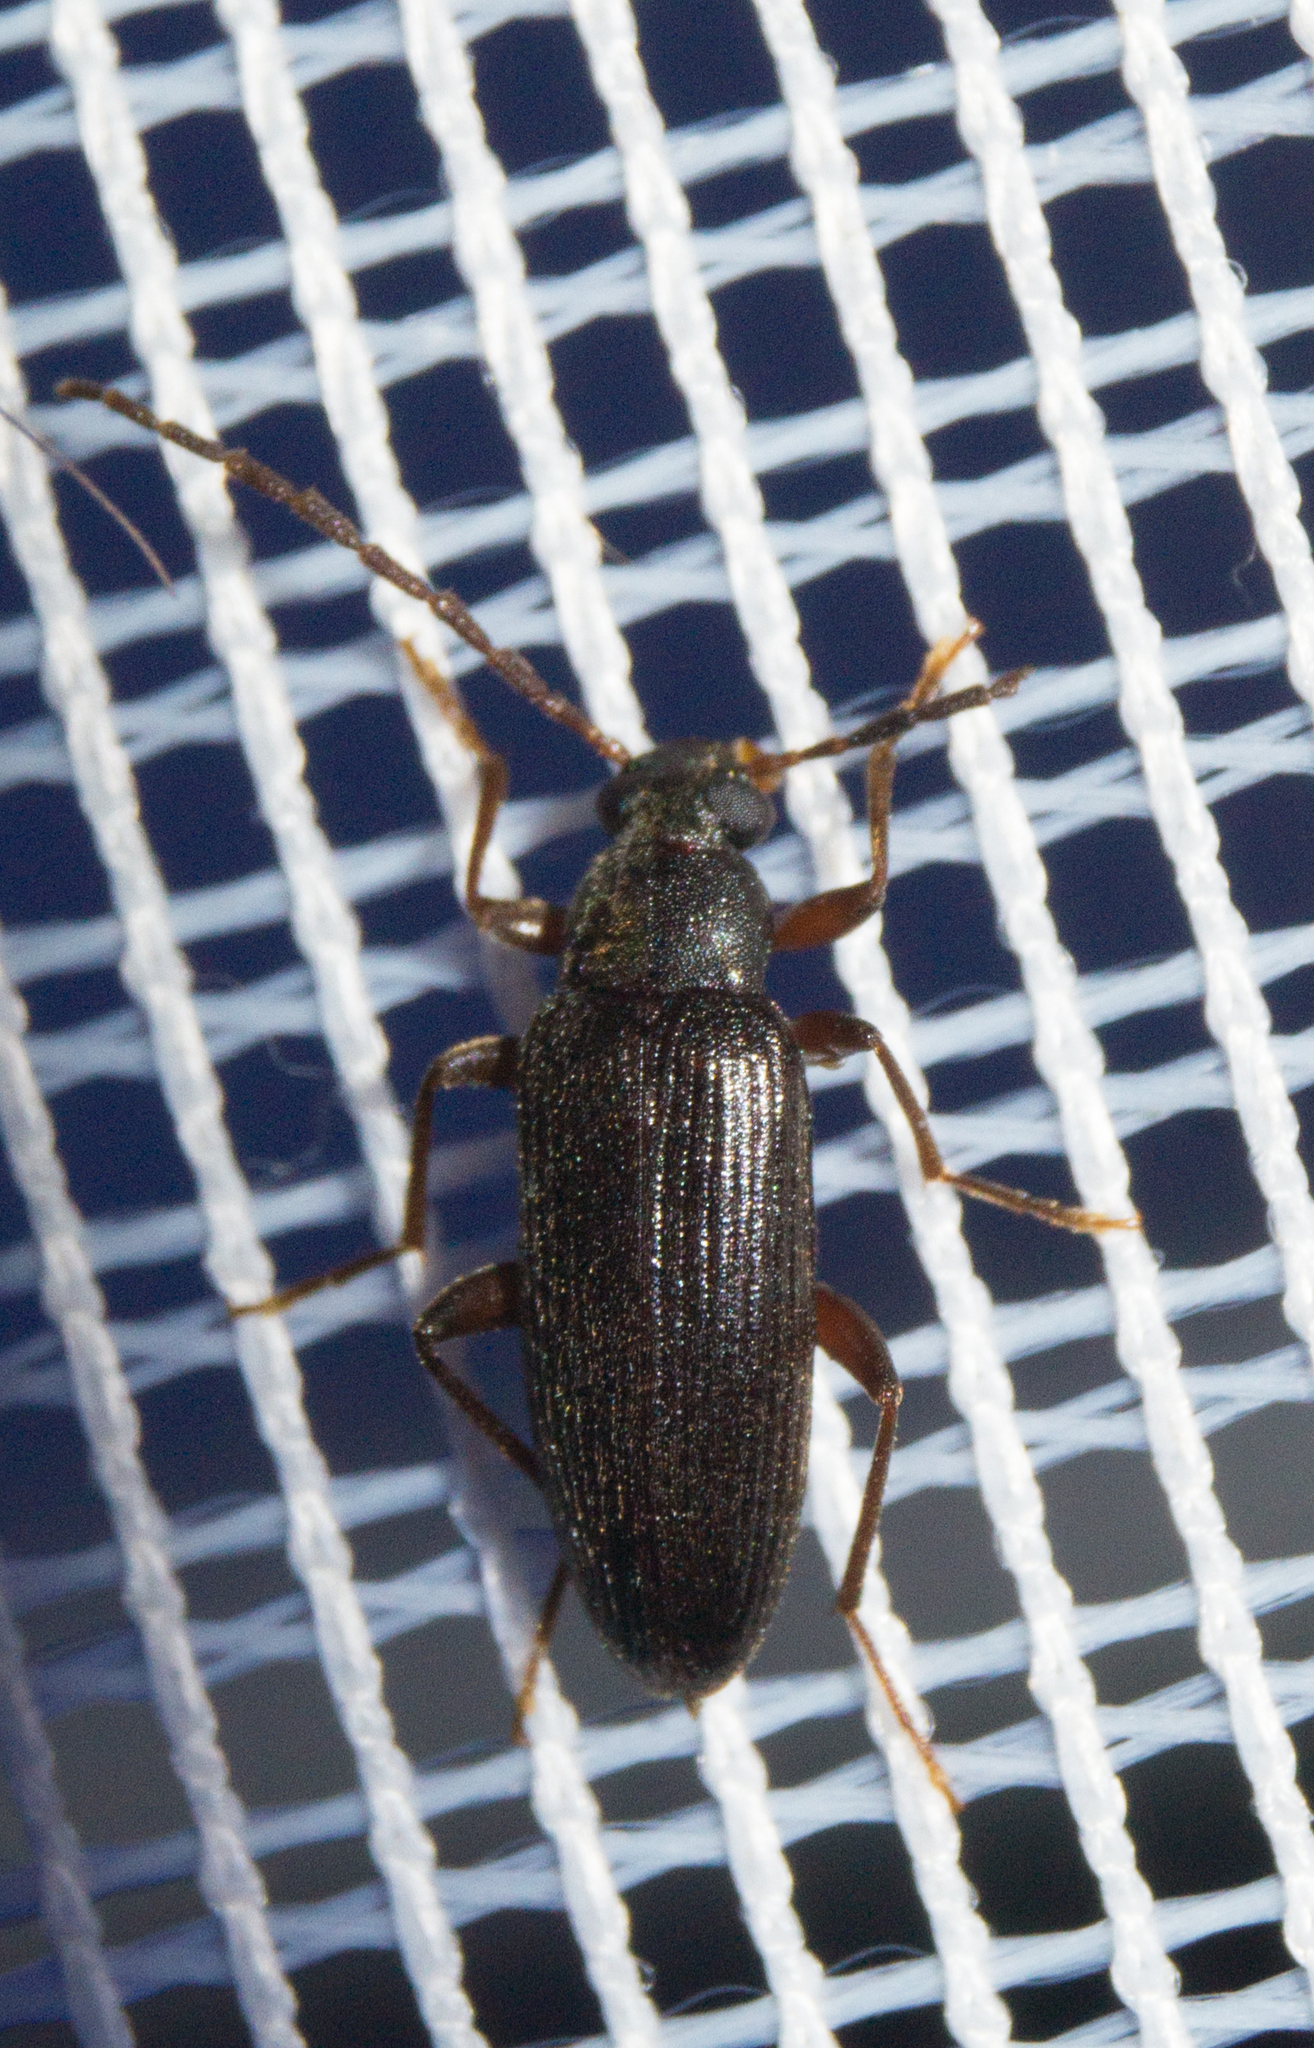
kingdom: Animalia
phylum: Arthropoda
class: Insecta
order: Coleoptera
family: Tenebrionidae
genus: Allecula
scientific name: Allecula morio
